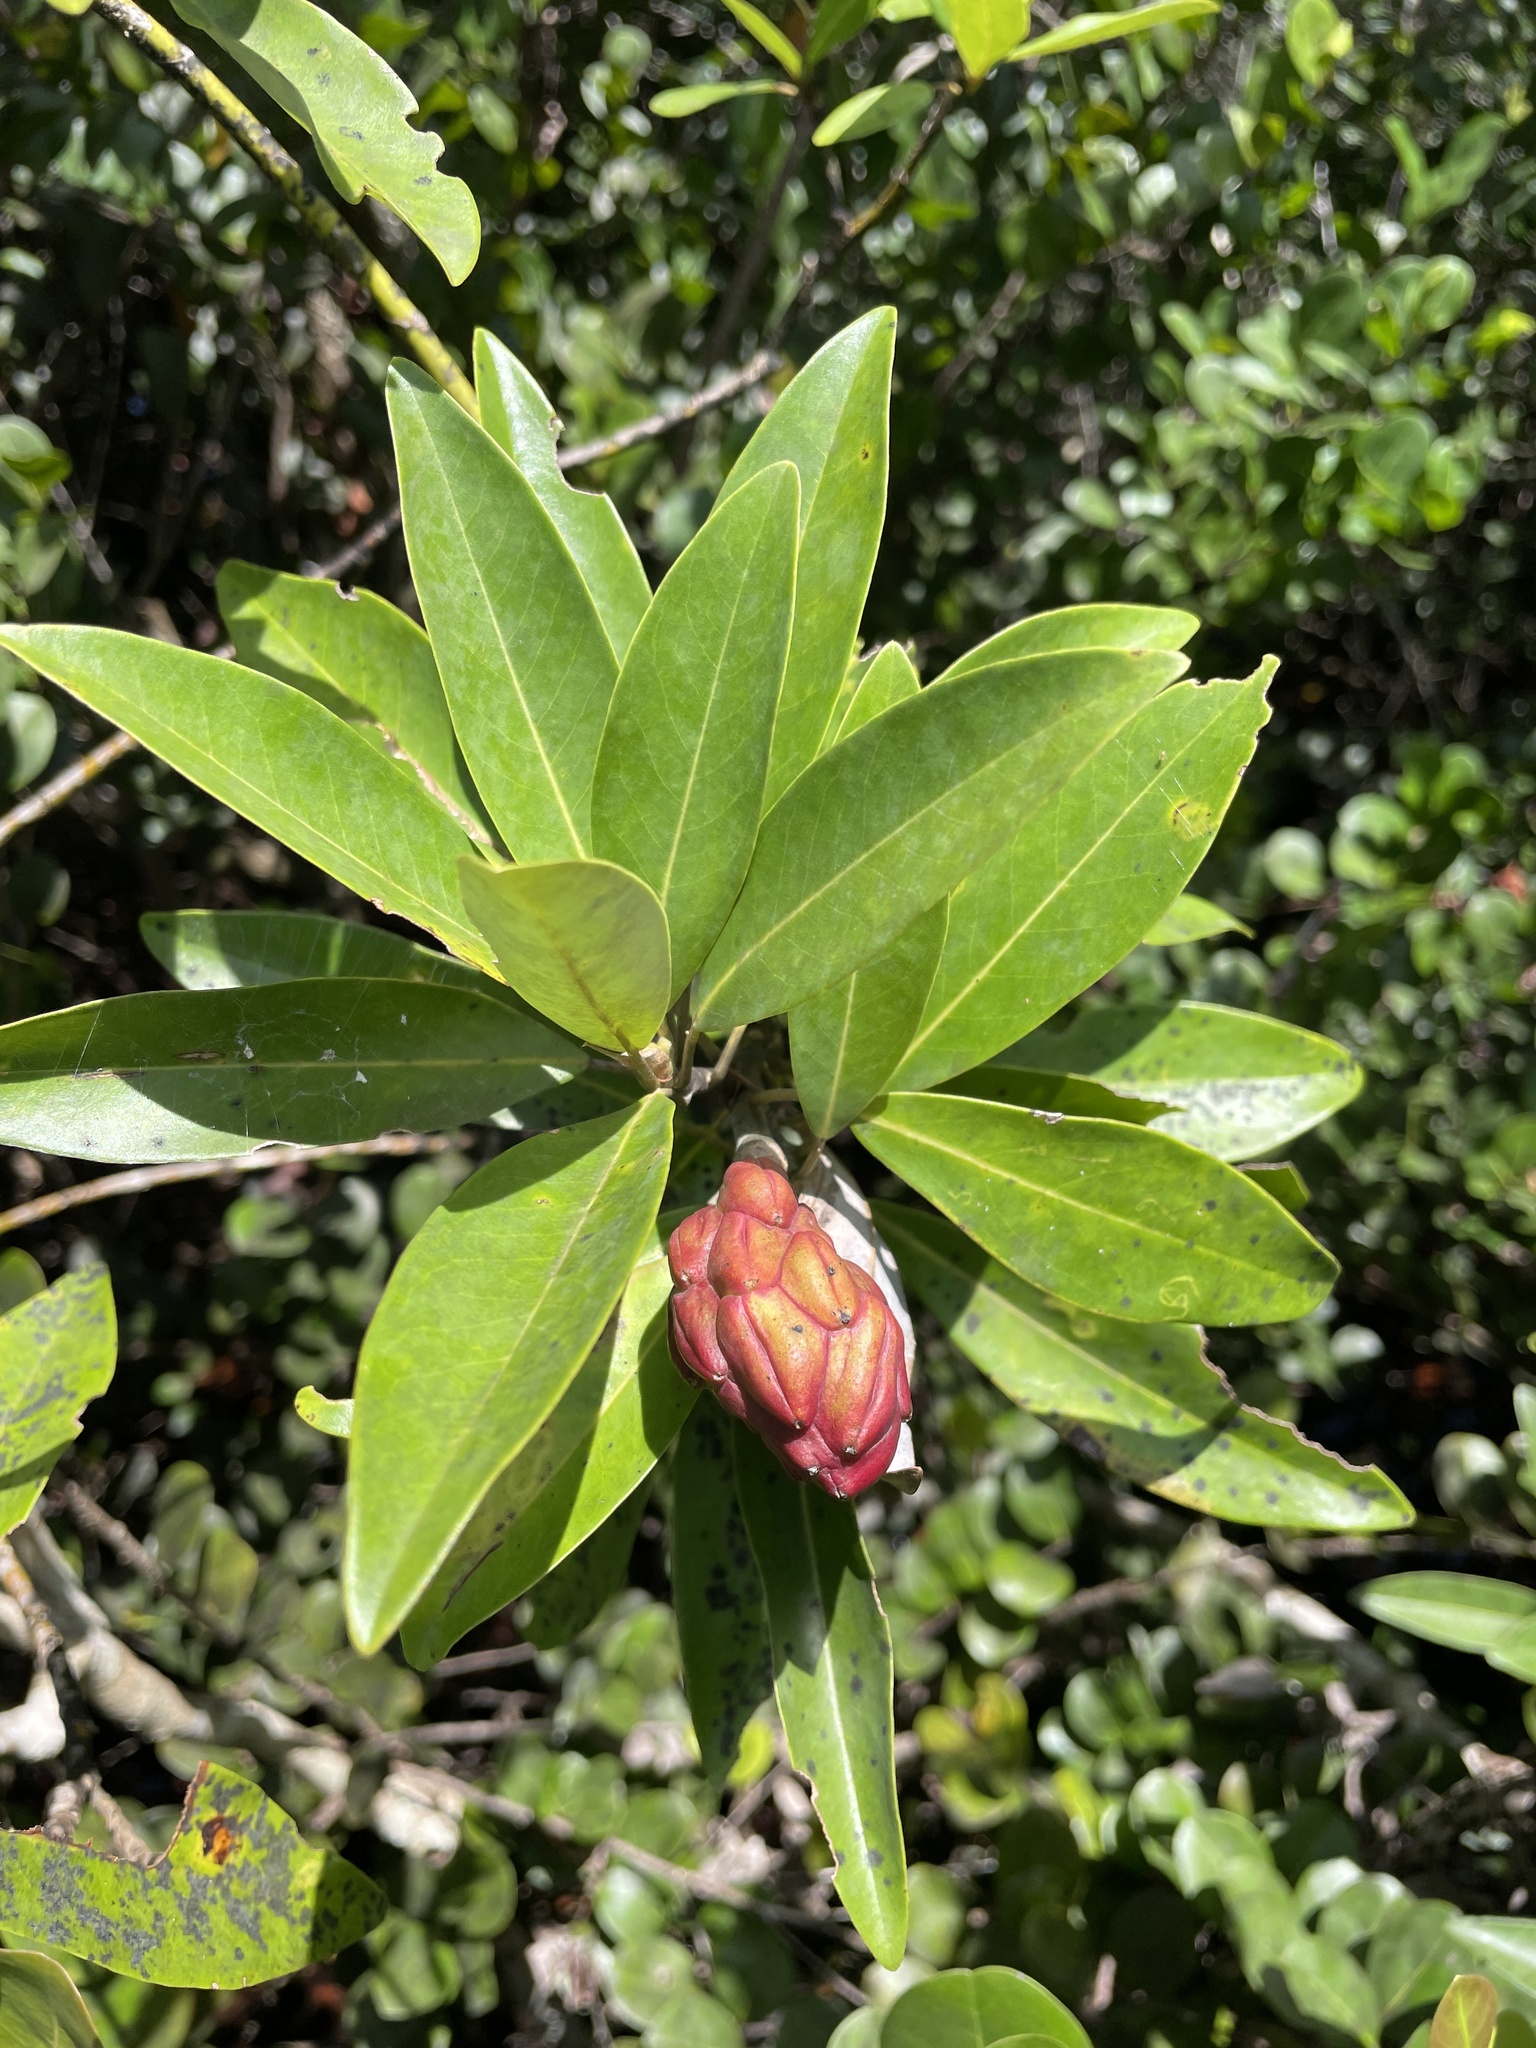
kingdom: Plantae
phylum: Tracheophyta
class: Magnoliopsida
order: Magnoliales
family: Magnoliaceae
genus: Magnolia
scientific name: Magnolia virginiana
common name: Swamp bay
